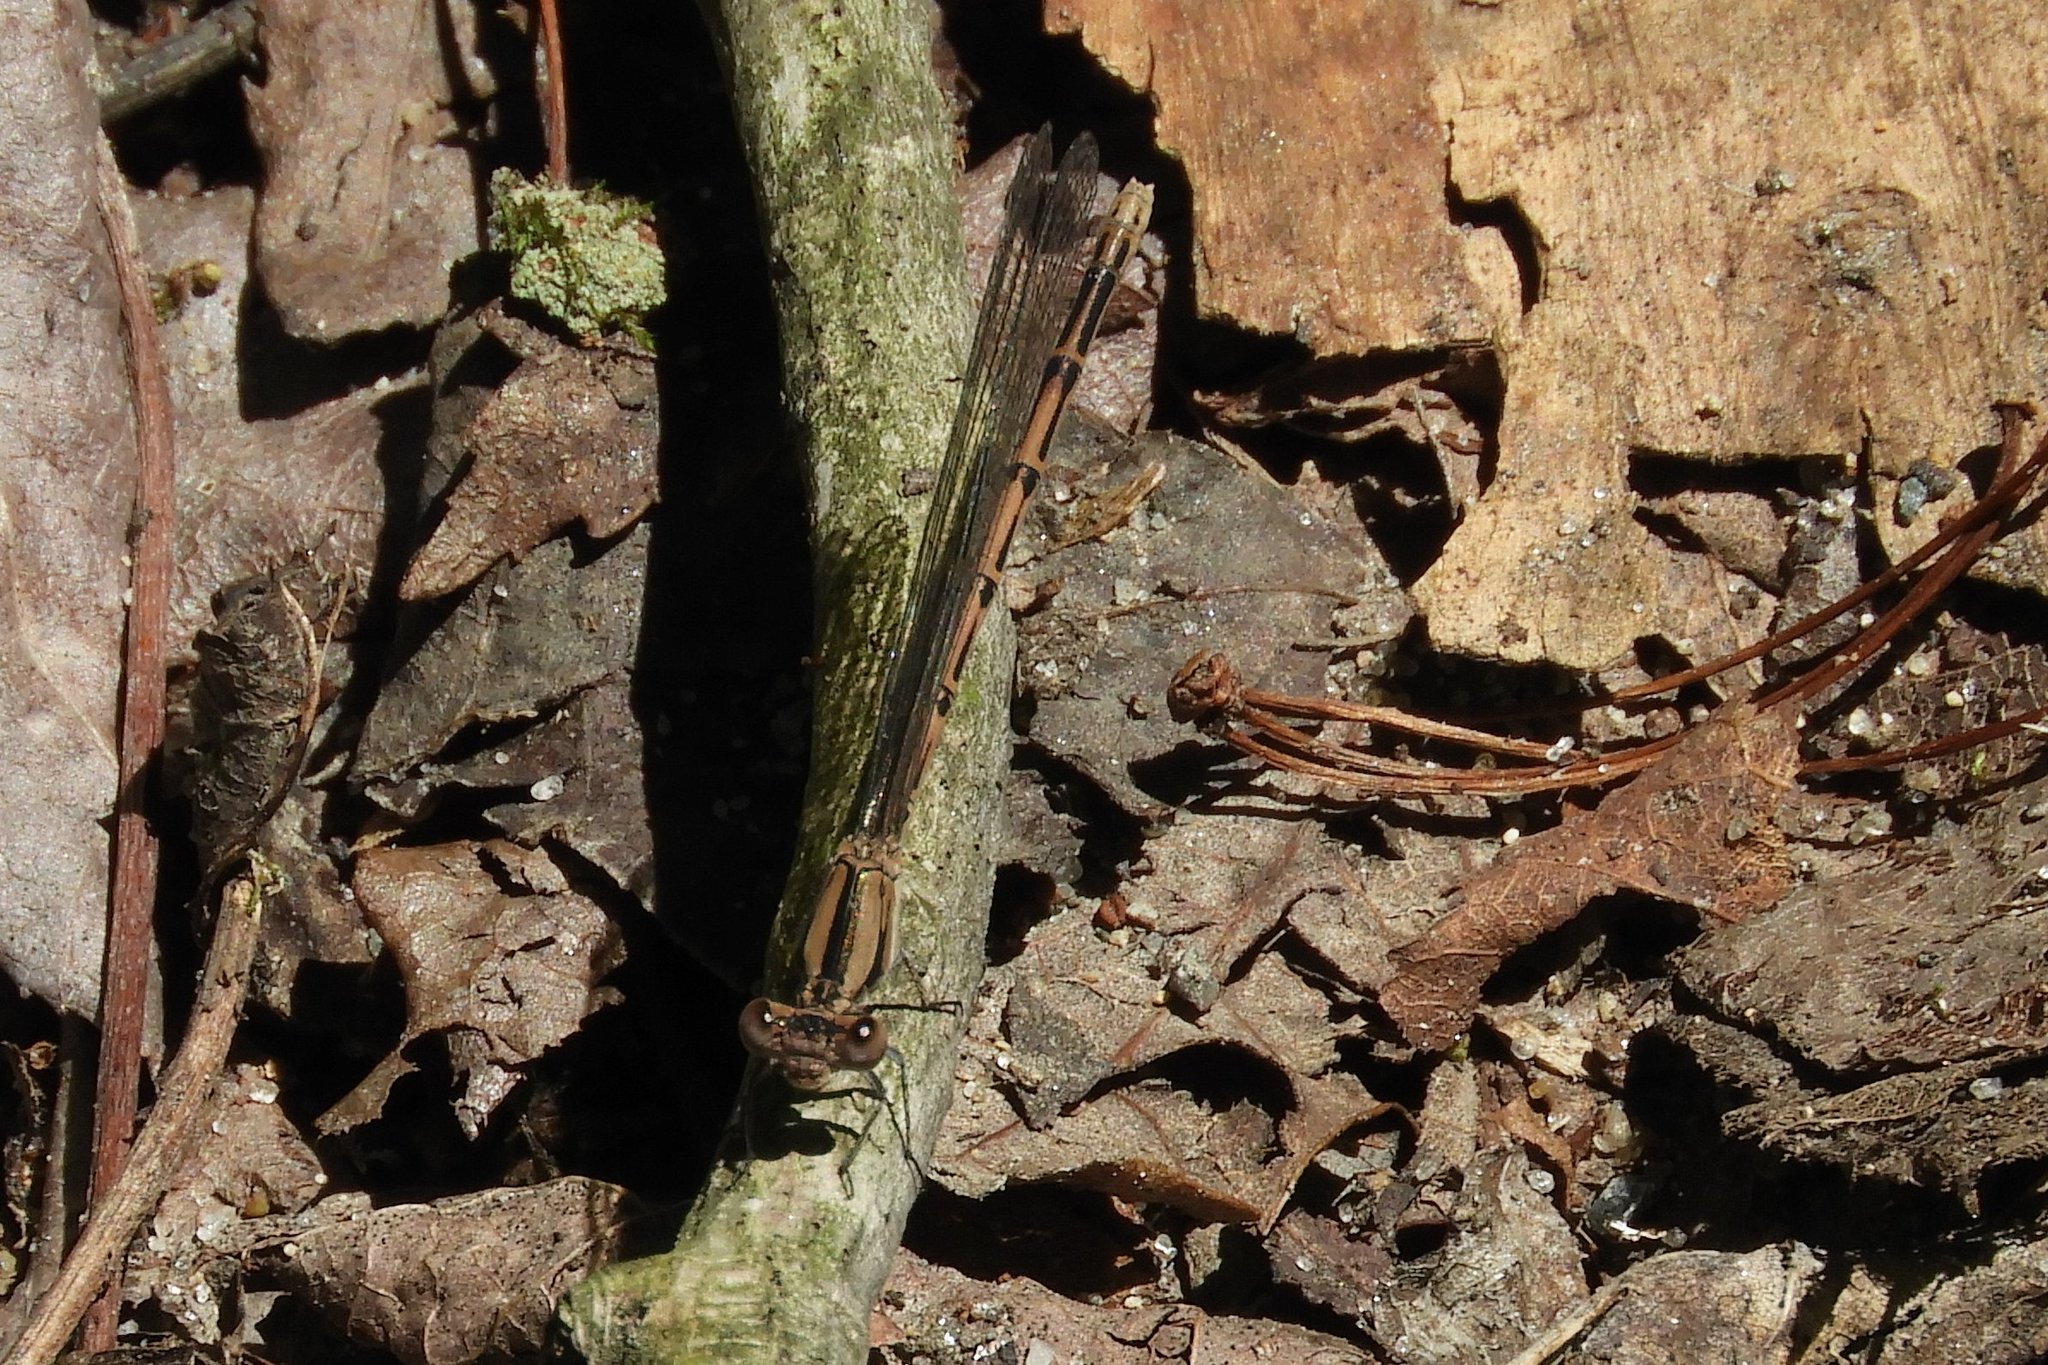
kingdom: Animalia
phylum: Arthropoda
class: Insecta
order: Odonata
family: Coenagrionidae
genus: Argia
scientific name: Argia fumipennis
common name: Variable dancer
